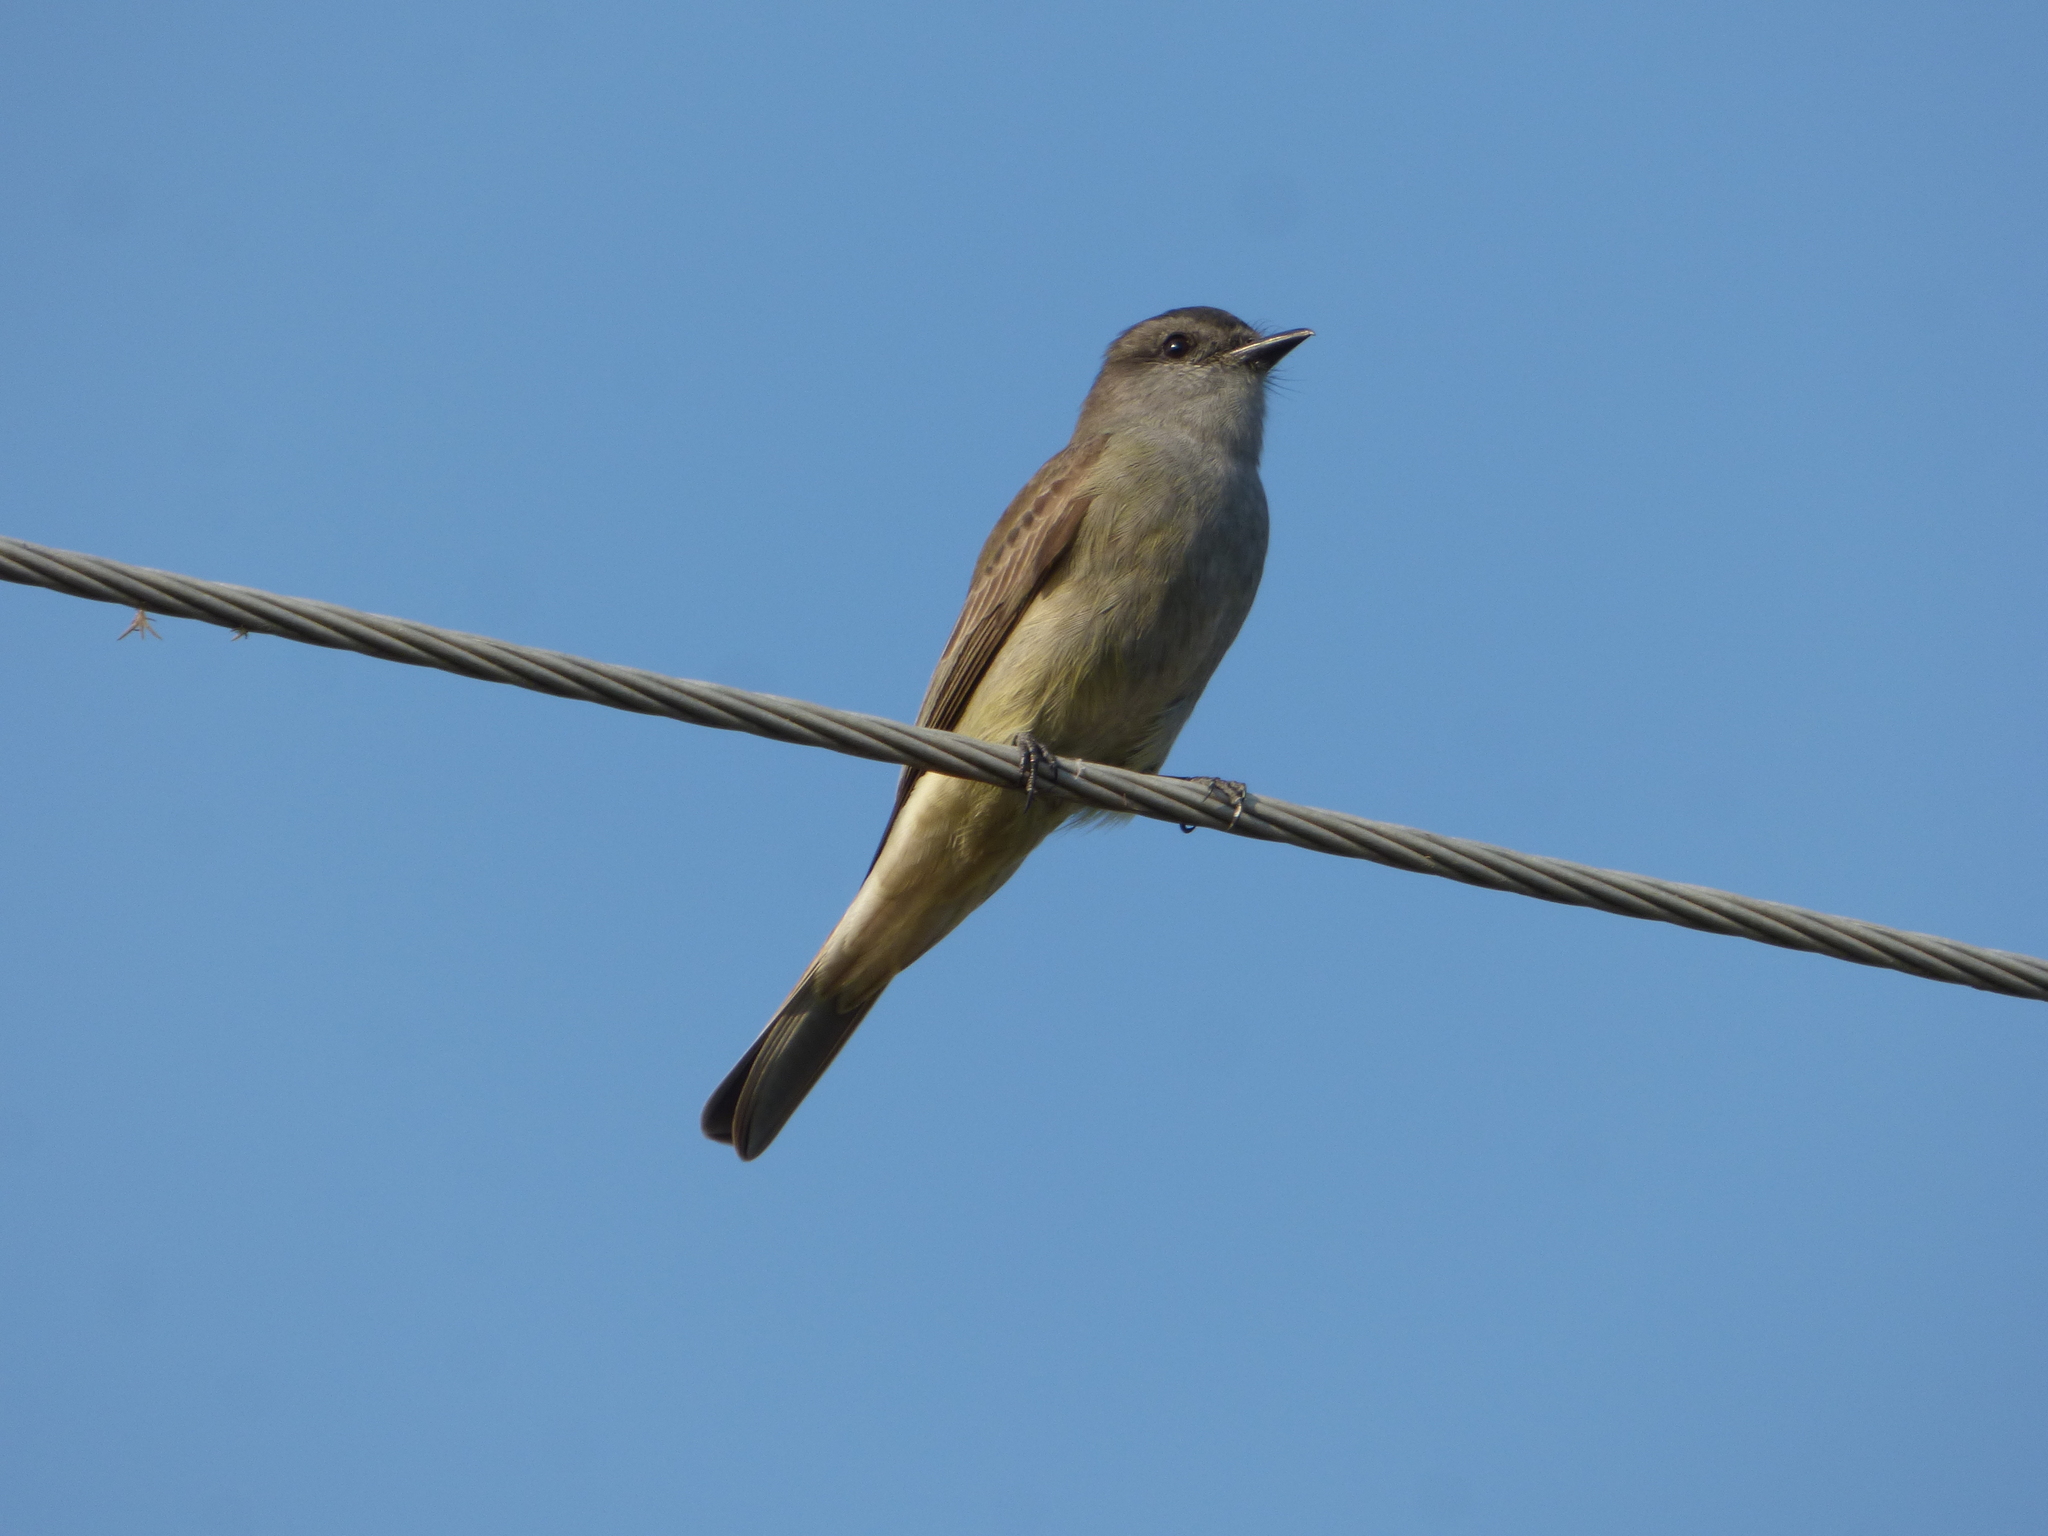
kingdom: Animalia
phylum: Chordata
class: Aves
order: Passeriformes
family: Tyrannidae
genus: Empidonomus
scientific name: Empidonomus aurantioatrocristatus
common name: Crowned slaty flycatcher
